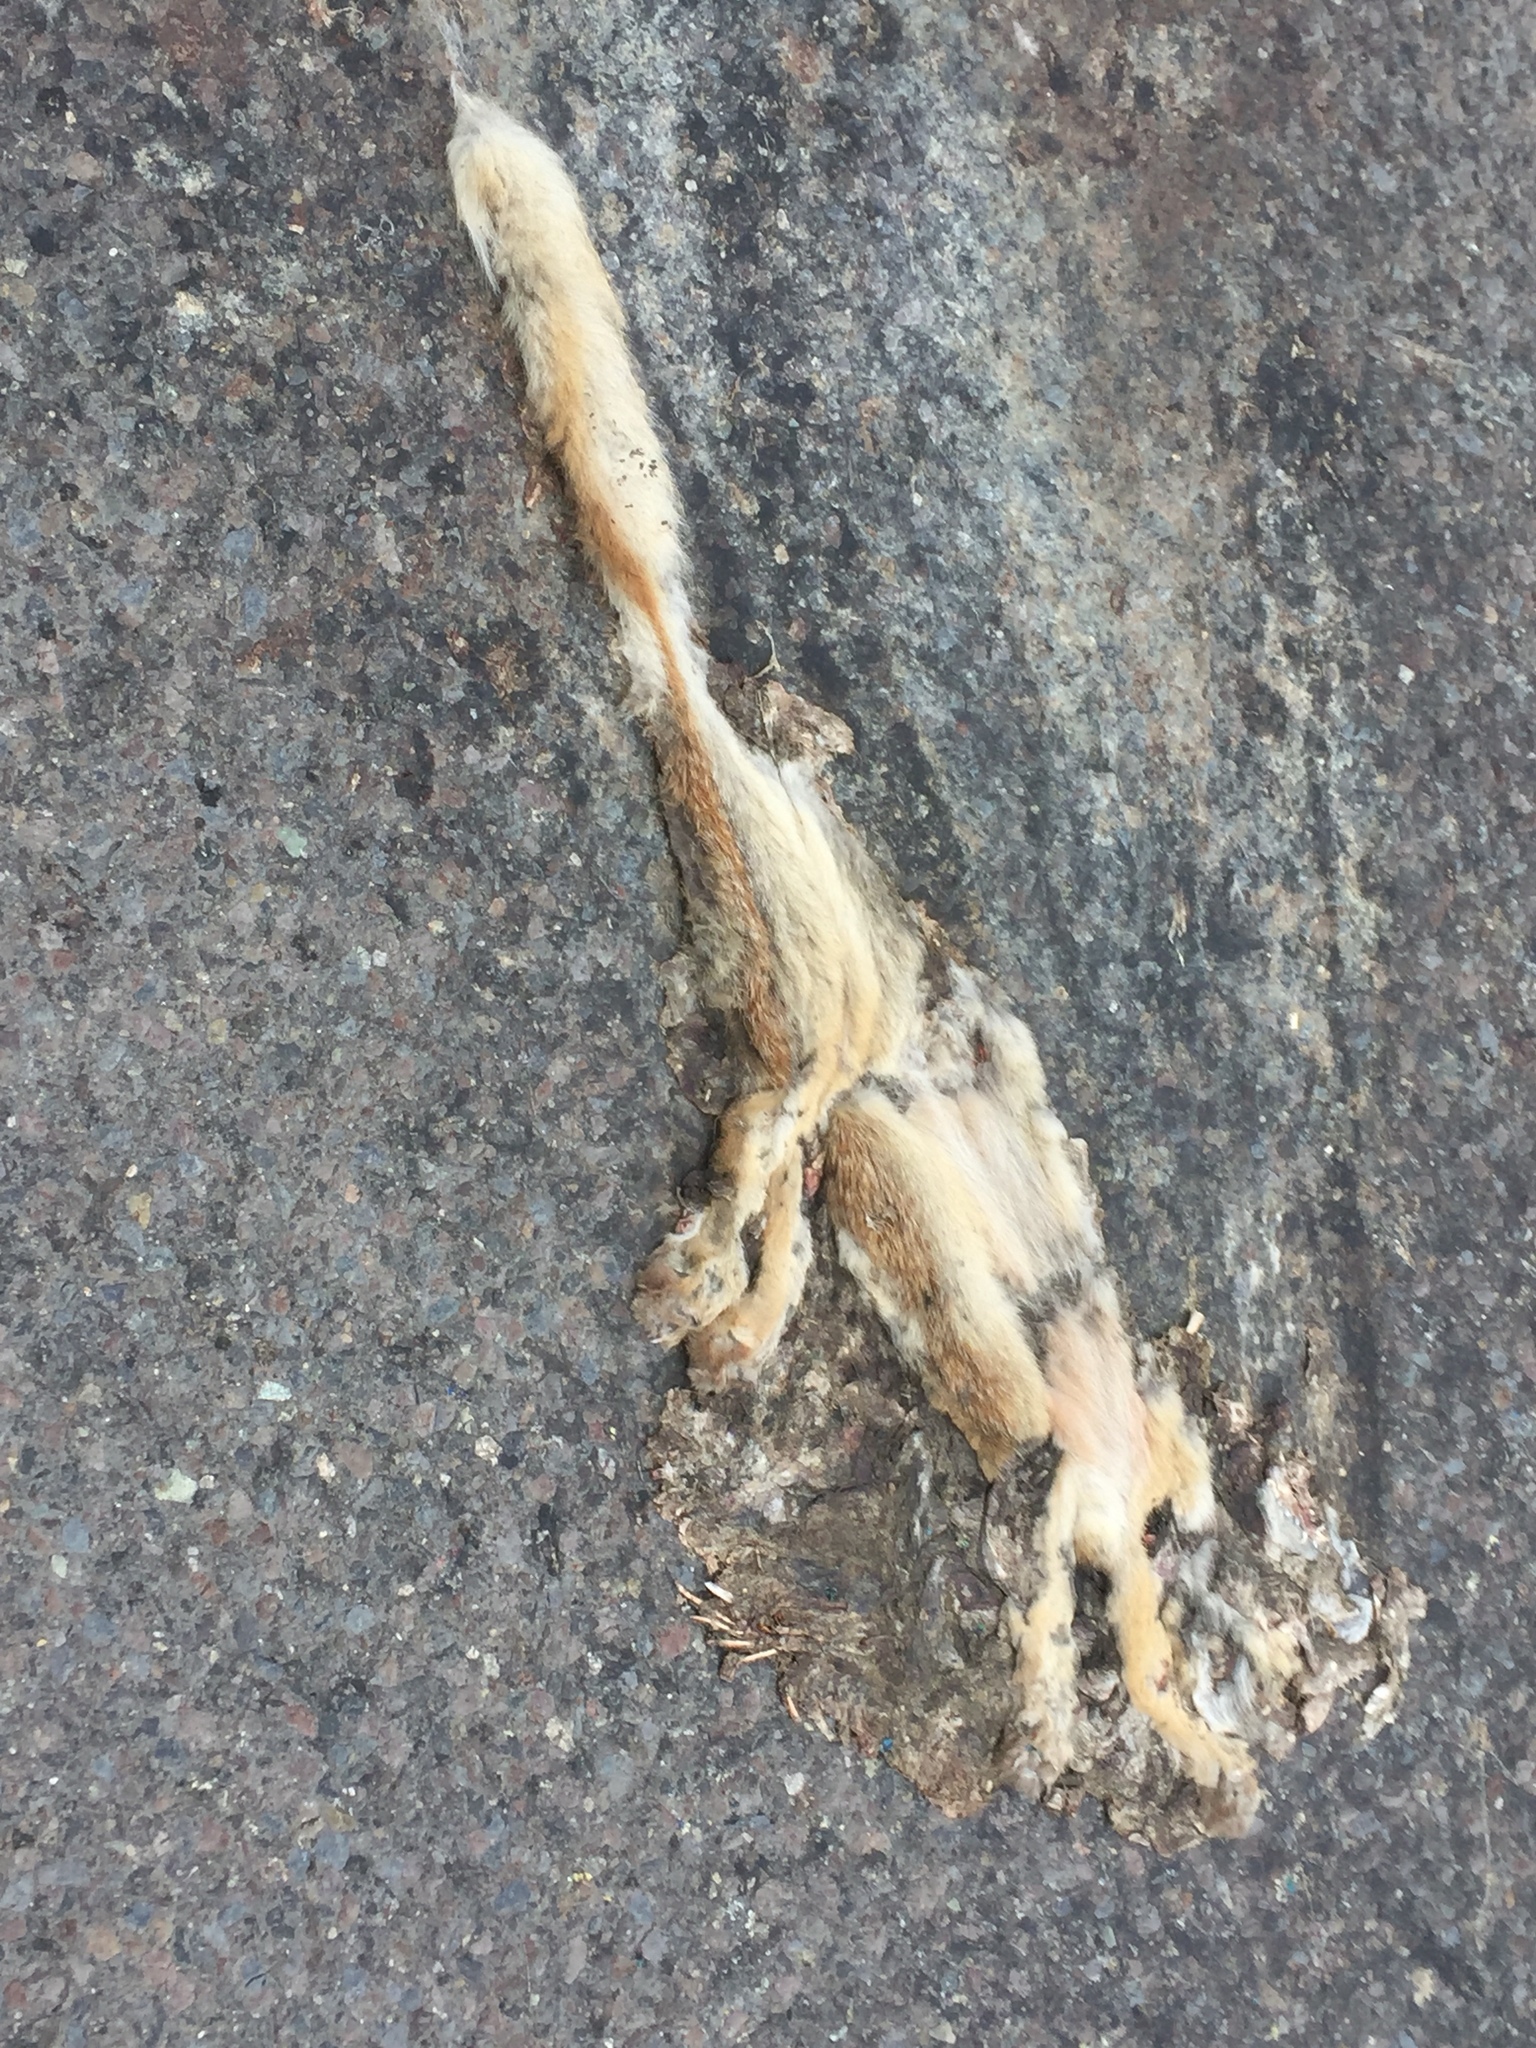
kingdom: Animalia
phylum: Chordata
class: Mammalia
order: Carnivora
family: Canidae
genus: Vulpes
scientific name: Vulpes vulpes
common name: Red fox
